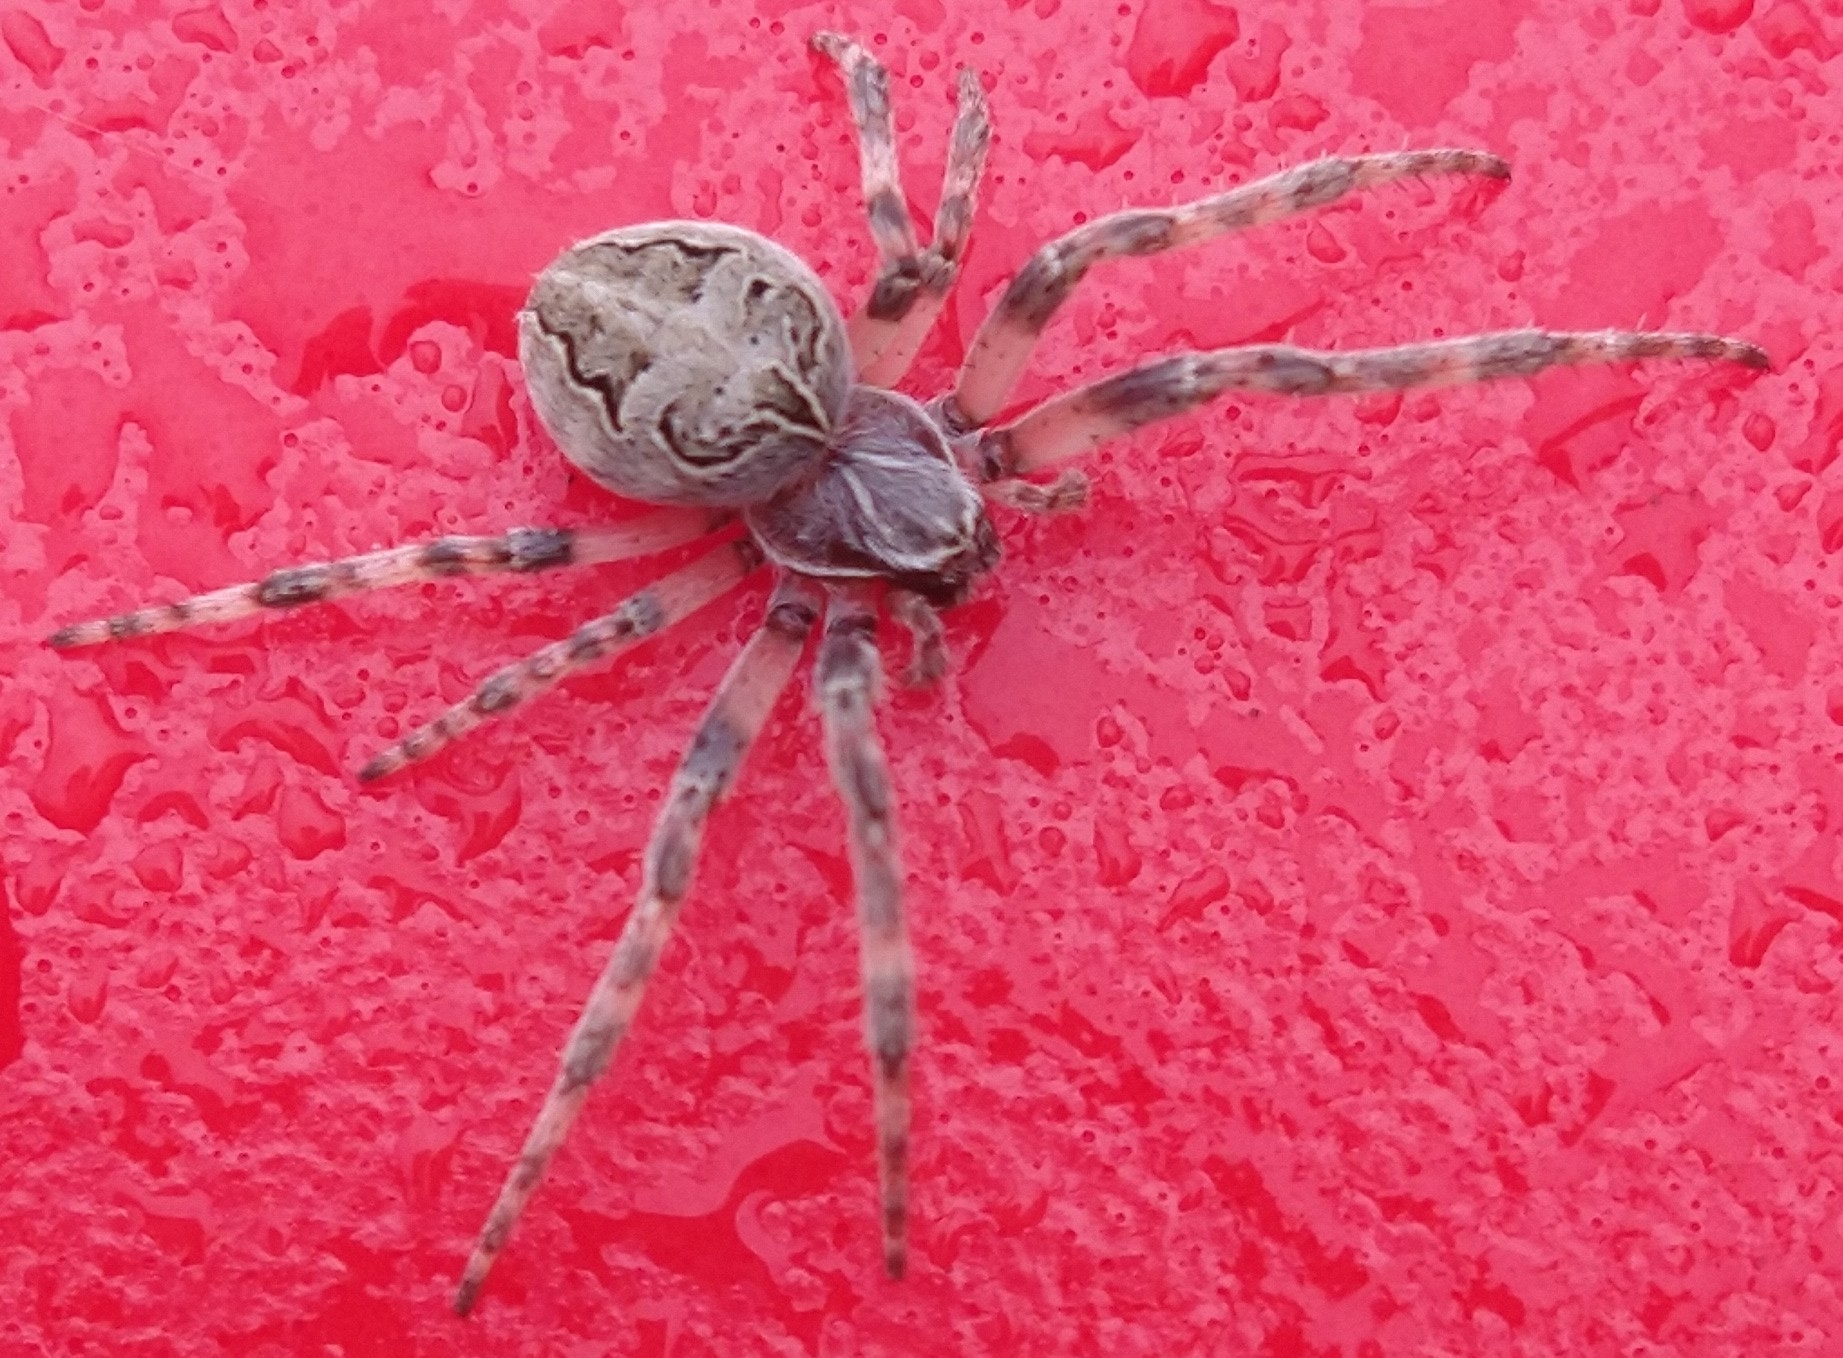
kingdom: Animalia
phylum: Arthropoda
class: Arachnida
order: Araneae
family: Araneidae
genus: Larinioides
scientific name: Larinioides sclopetarius
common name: Bridge orbweaver
